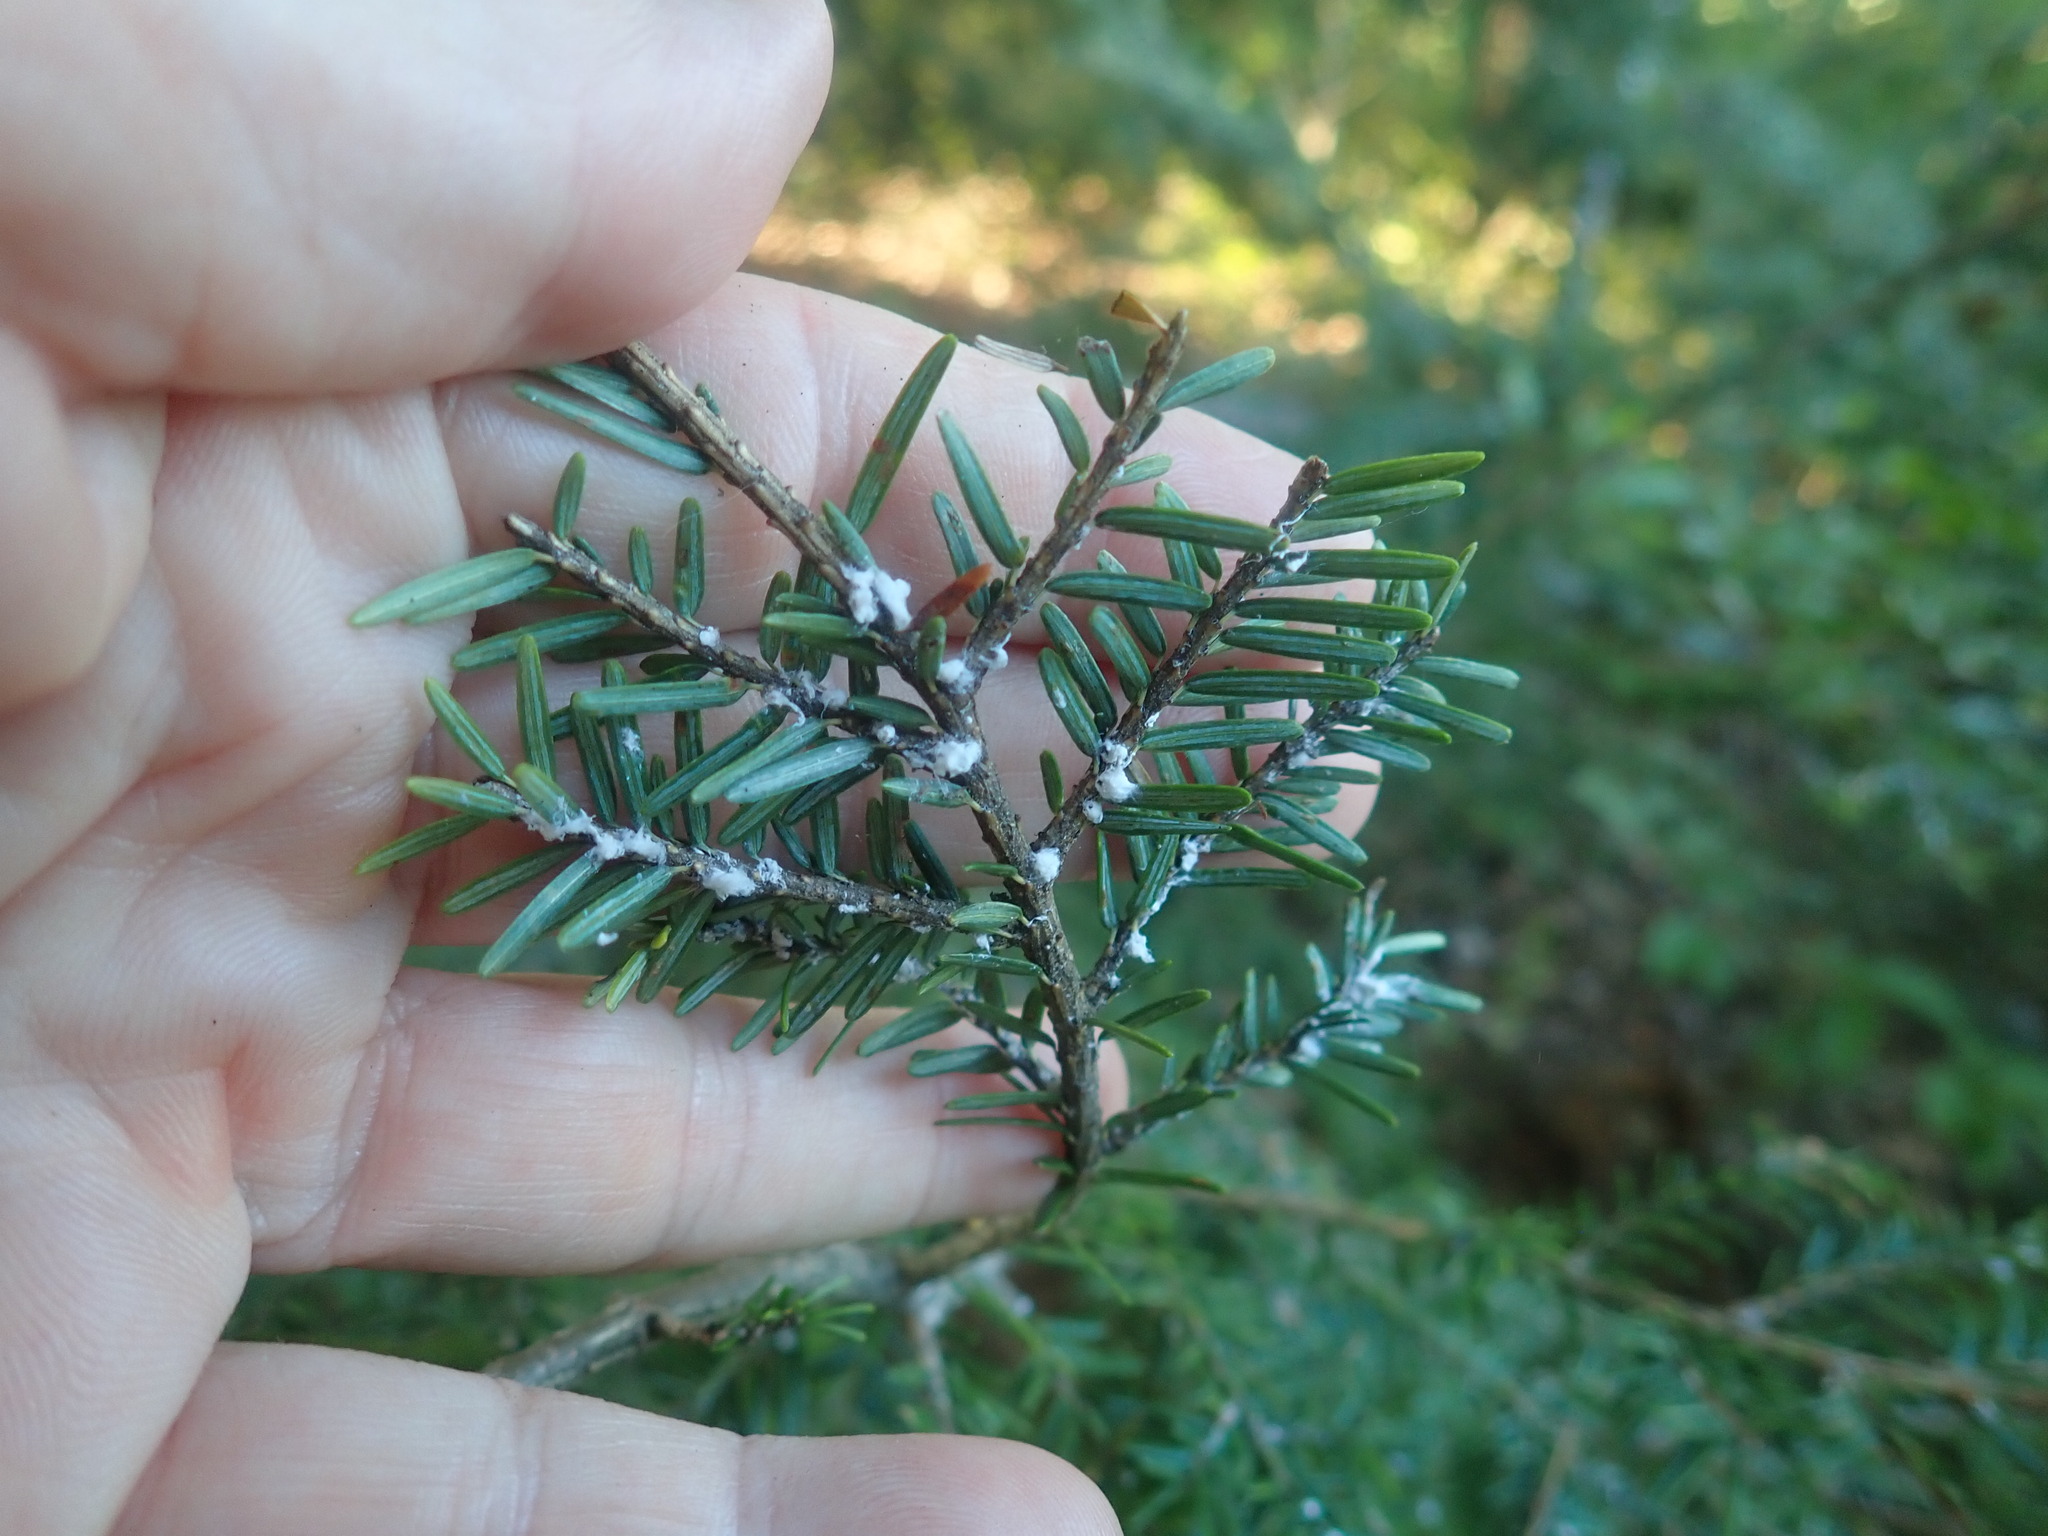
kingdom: Animalia
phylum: Arthropoda
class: Insecta
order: Hemiptera
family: Adelgidae
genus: Adelges
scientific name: Adelges tsugae
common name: Hemlock woolly adelgid
